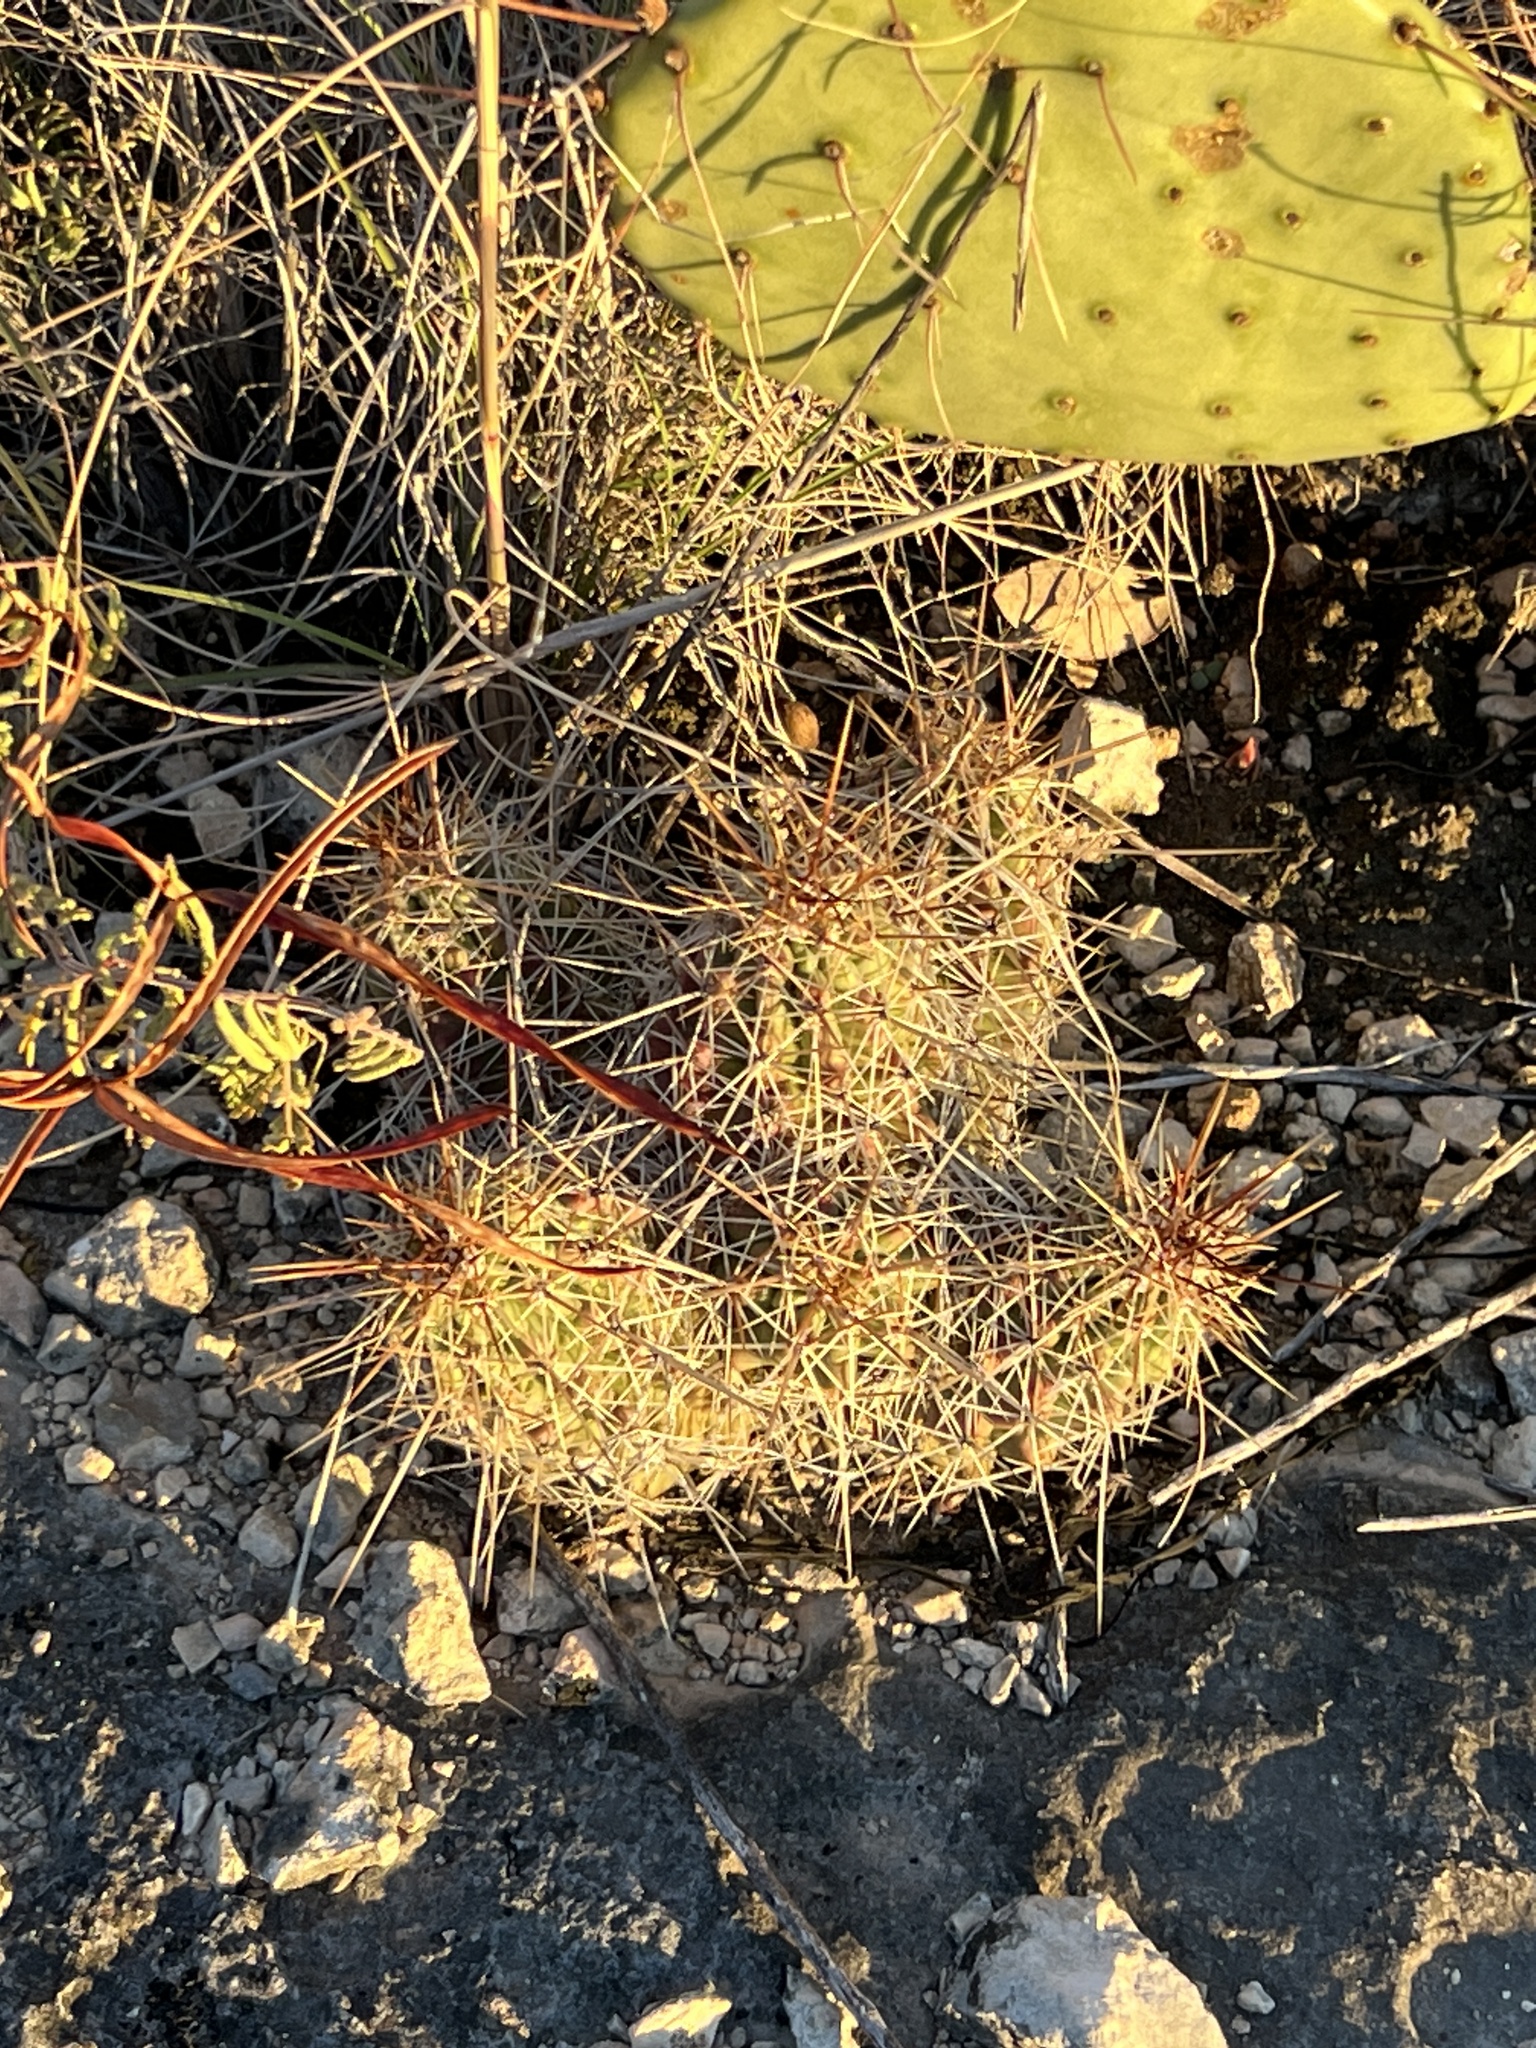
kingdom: Plantae
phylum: Tracheophyta
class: Magnoliopsida
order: Caryophyllales
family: Cactaceae
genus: Echinocereus
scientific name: Echinocereus enneacanthus
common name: Pitaya
